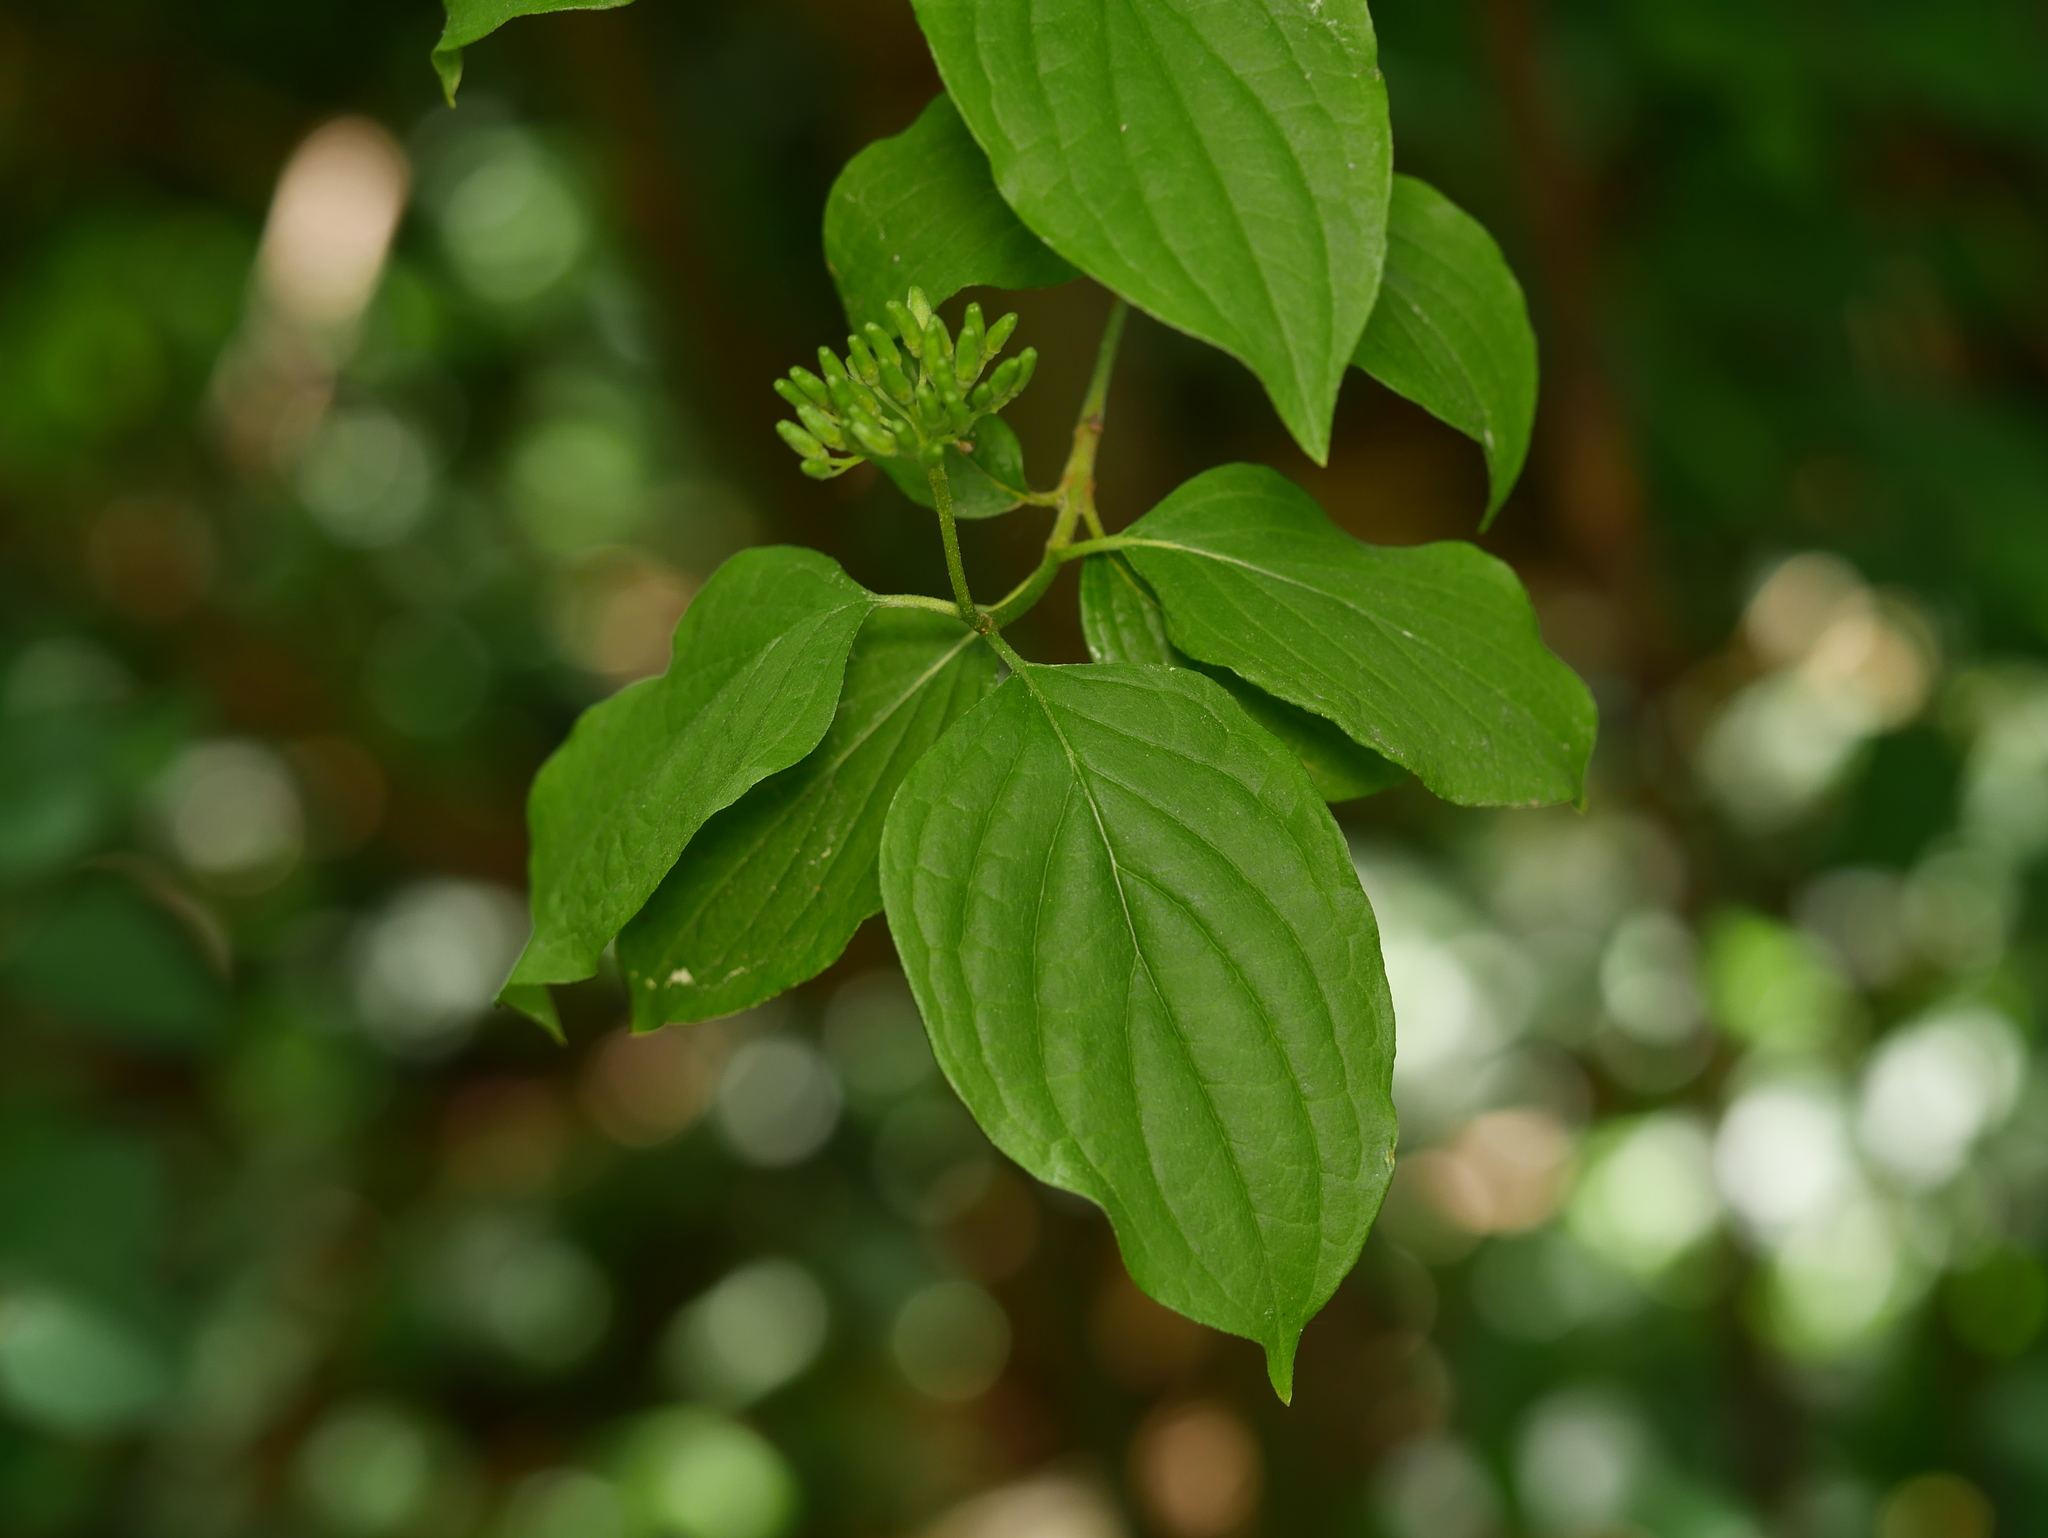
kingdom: Plantae
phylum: Tracheophyta
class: Magnoliopsida
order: Cornales
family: Cornaceae
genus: Cornus
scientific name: Cornus sanguinea
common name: Dogwood
